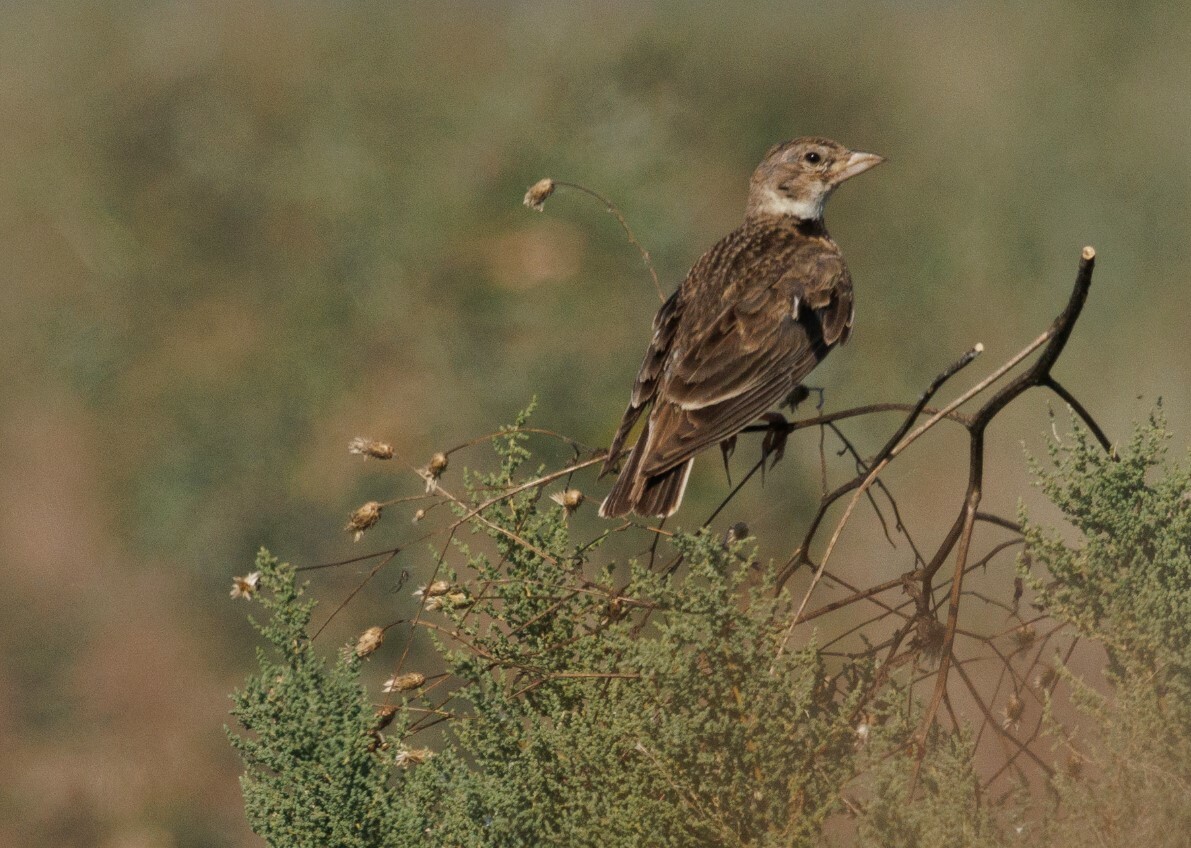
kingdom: Animalia
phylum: Chordata
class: Aves
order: Passeriformes
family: Alaudidae
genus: Melanocorypha
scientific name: Melanocorypha calandra
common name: Calandra lark
